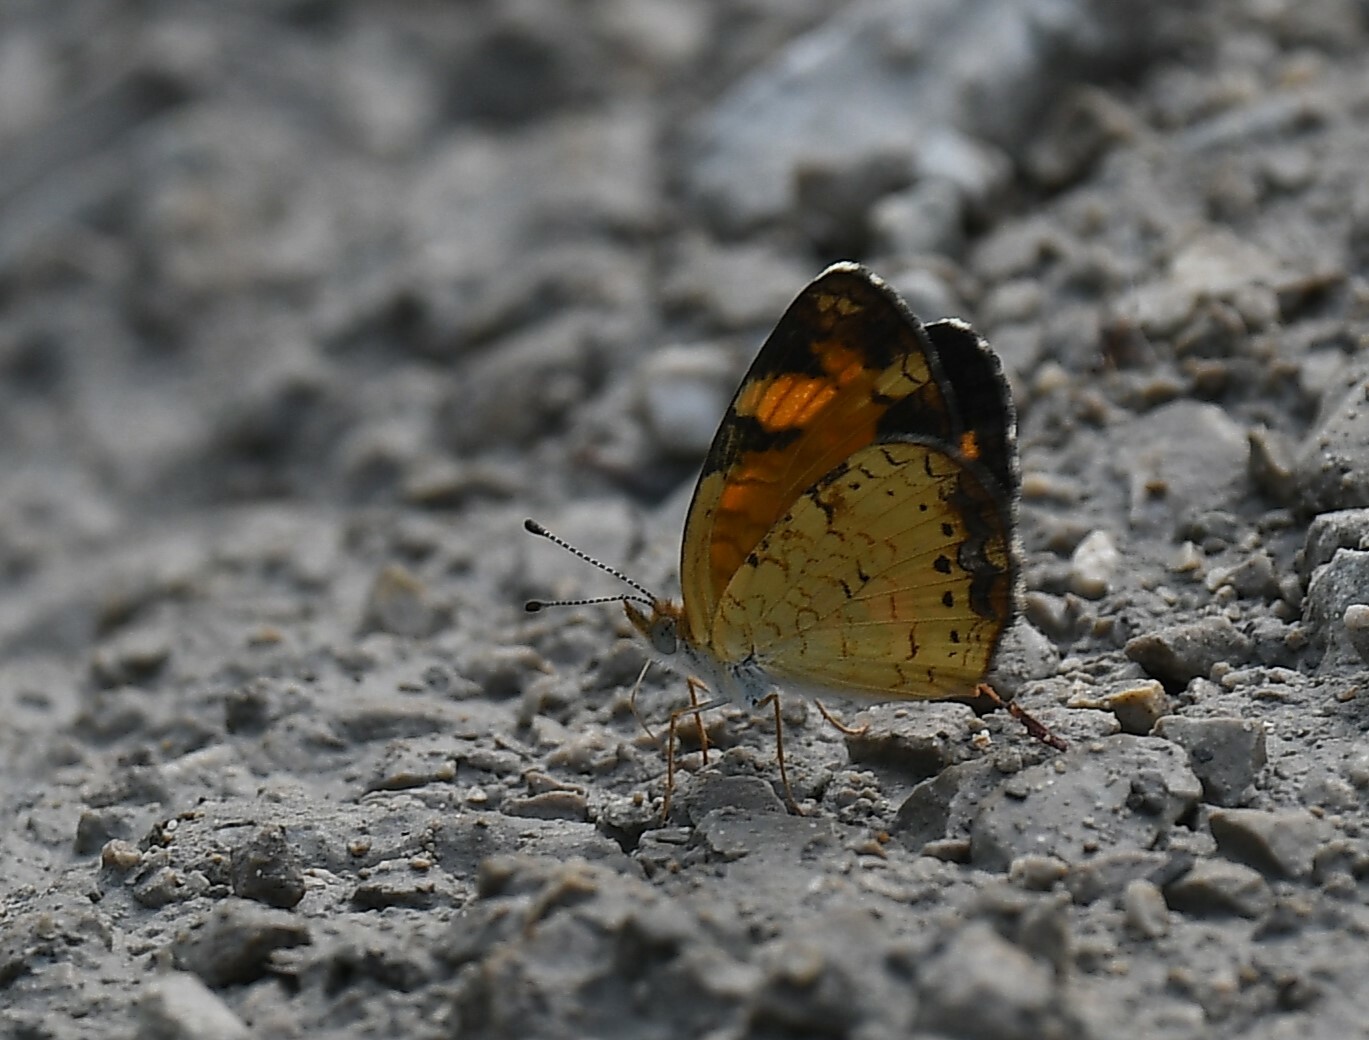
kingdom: Animalia
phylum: Arthropoda
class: Insecta
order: Lepidoptera
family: Nymphalidae
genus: Phyciodes
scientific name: Phyciodes tharos
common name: Pearl crescent
